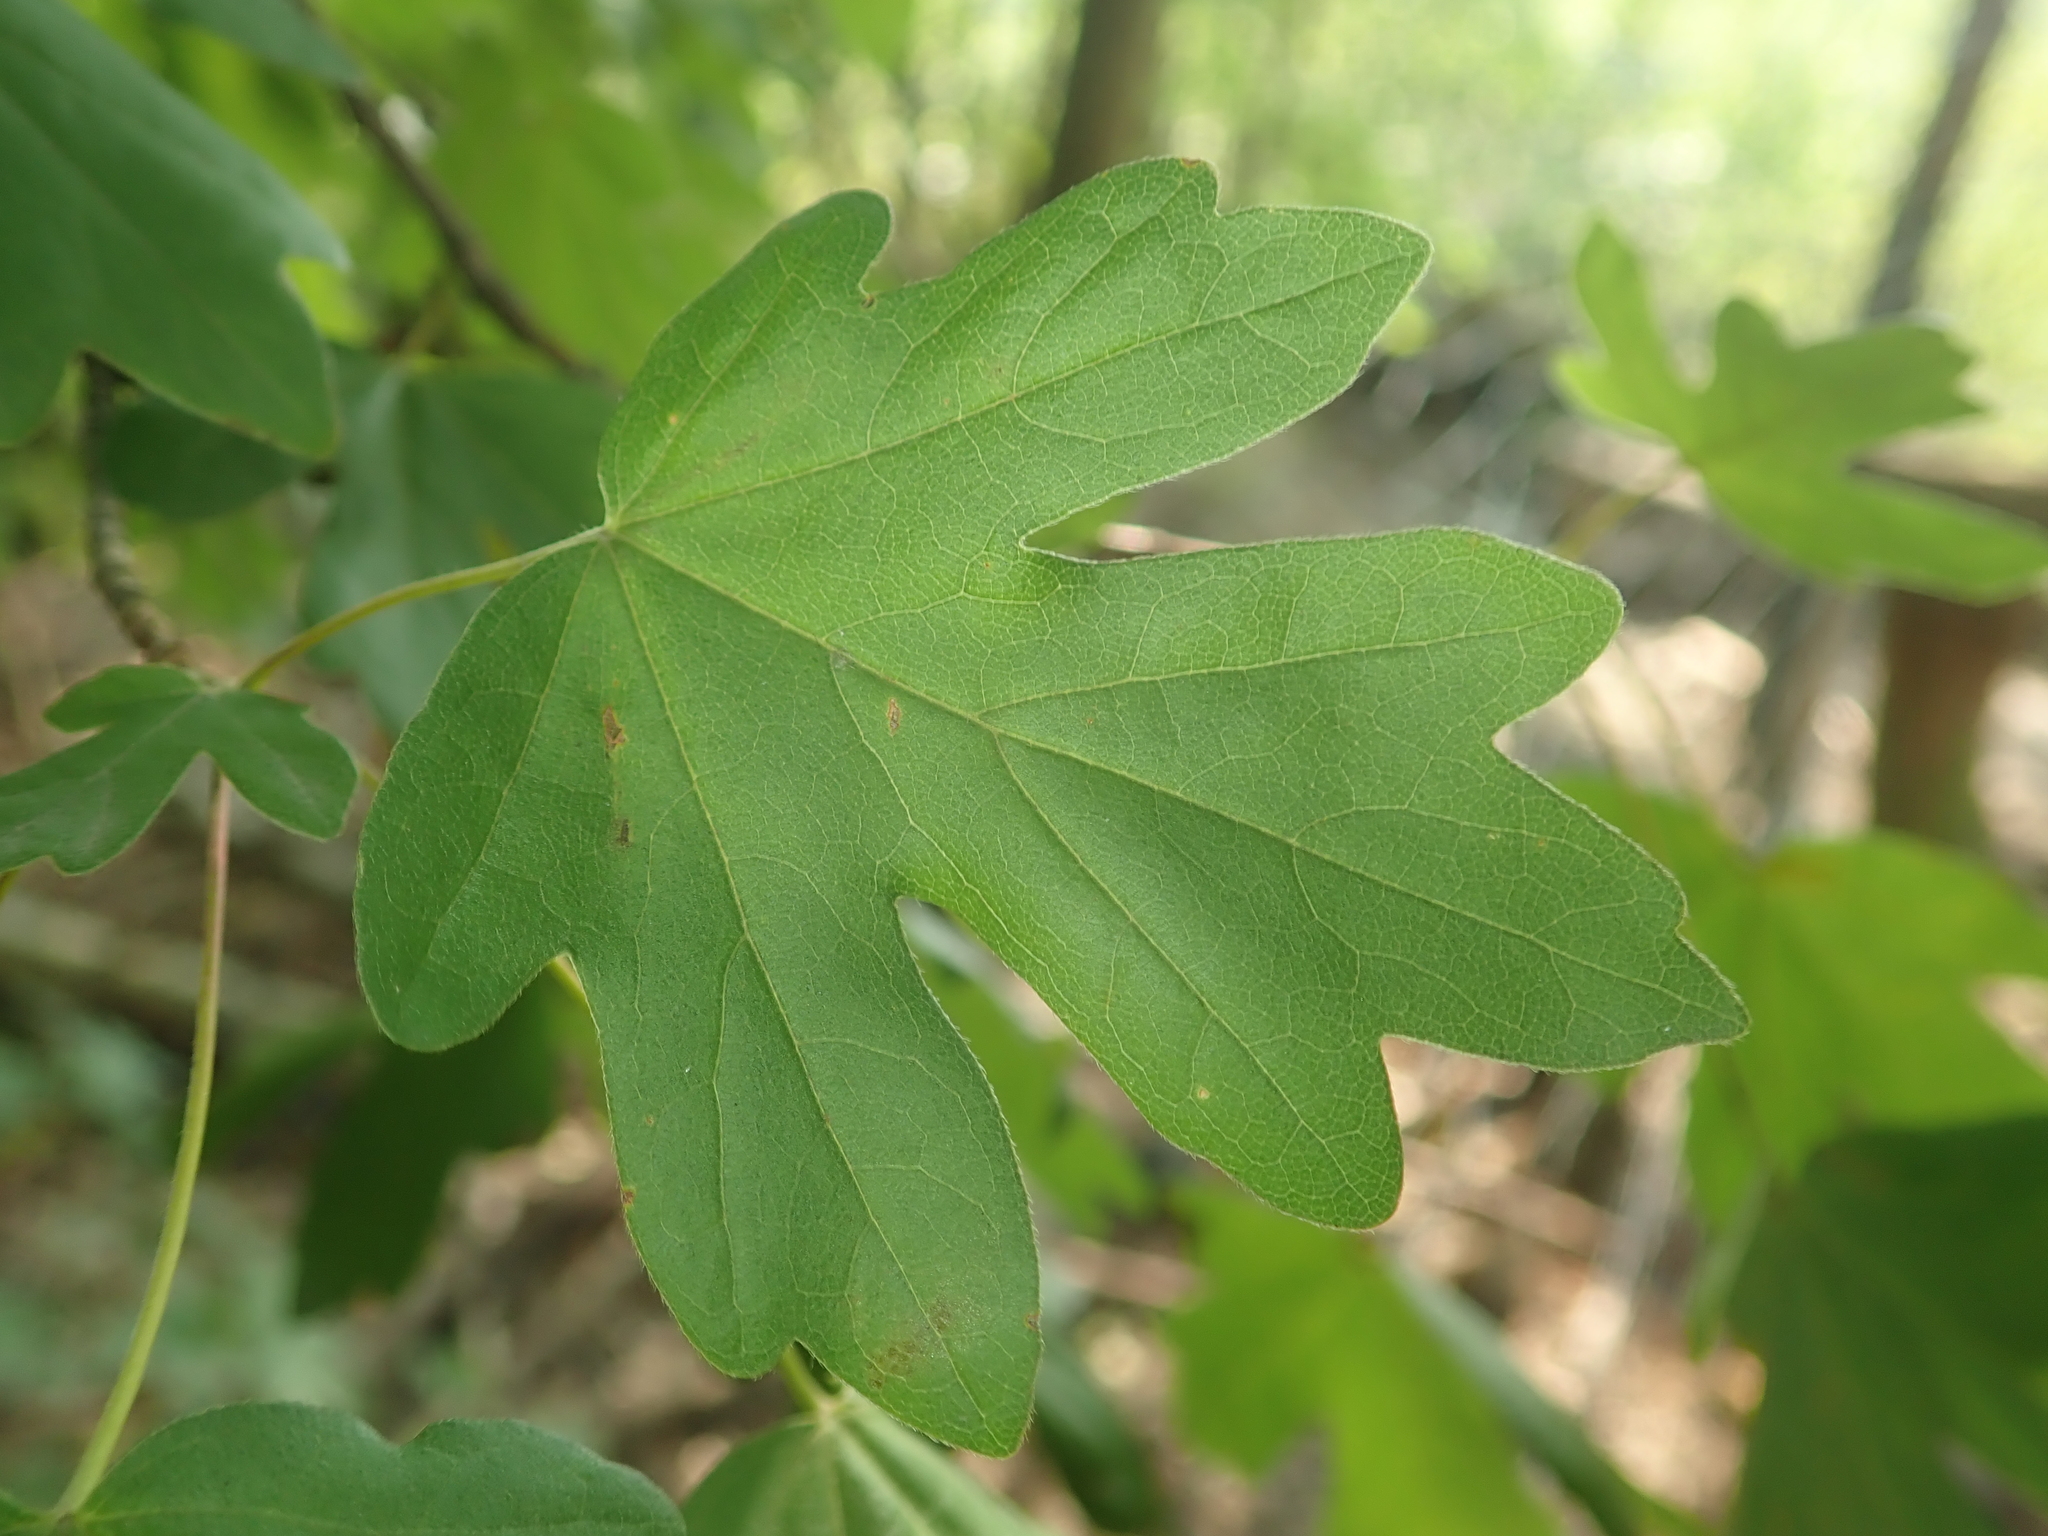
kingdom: Plantae
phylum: Tracheophyta
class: Magnoliopsida
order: Sapindales
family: Sapindaceae
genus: Acer
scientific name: Acer campestre
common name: Field maple
